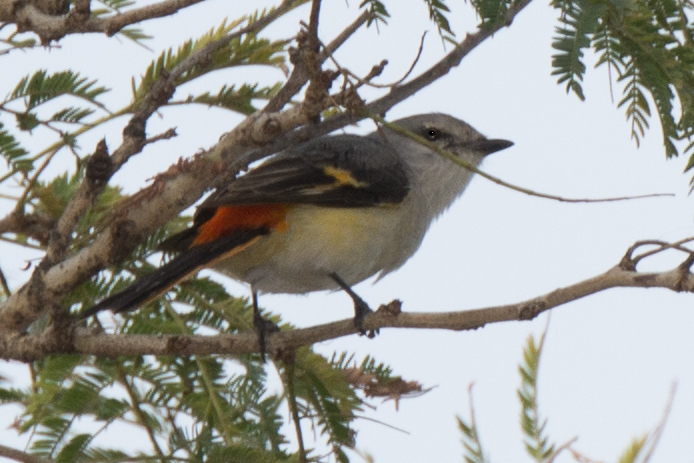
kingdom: Animalia
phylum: Chordata
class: Aves
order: Passeriformes
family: Campephagidae
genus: Pericrocotus
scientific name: Pericrocotus cinnamomeus
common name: Small minivet
